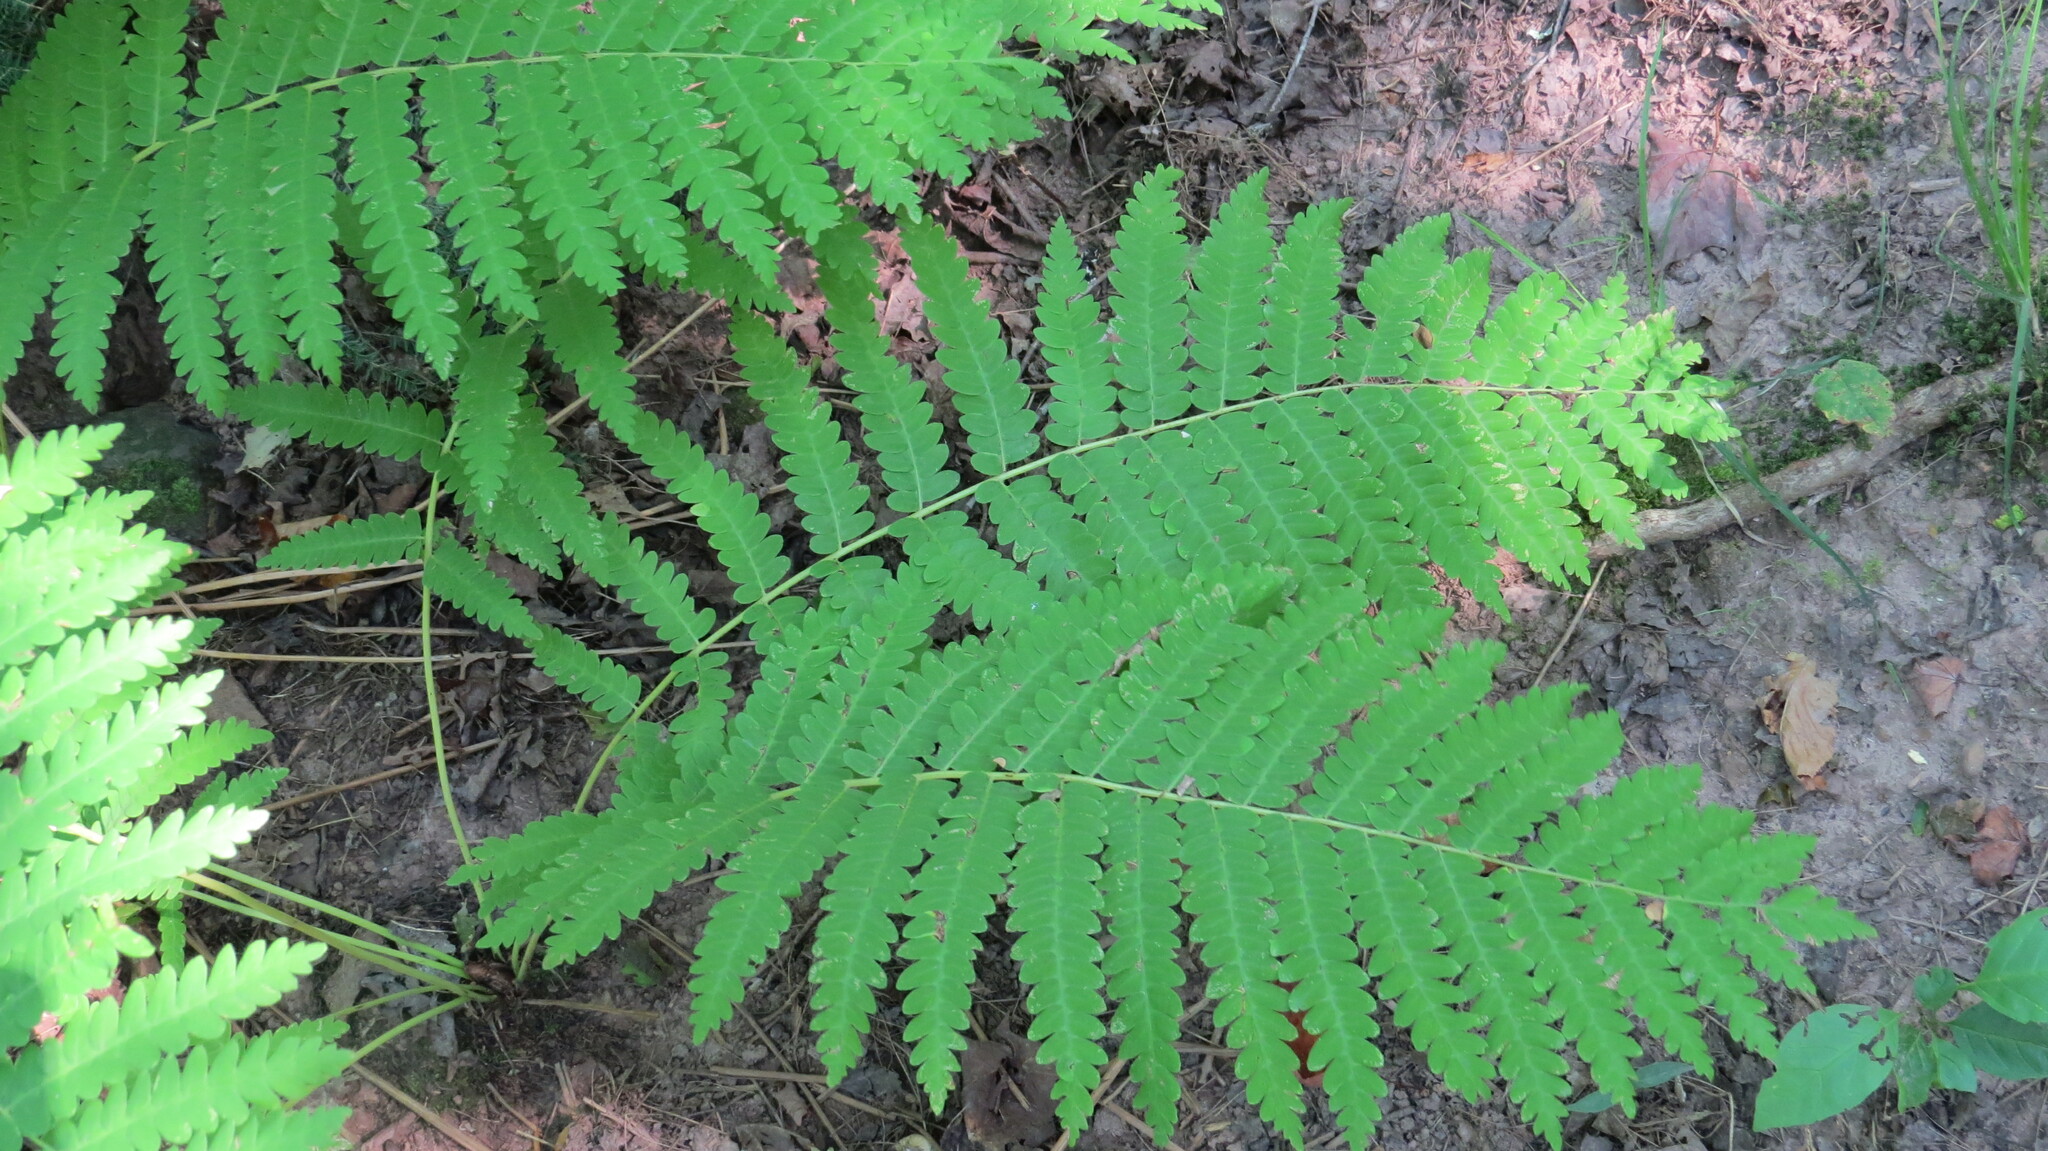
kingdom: Plantae
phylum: Tracheophyta
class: Polypodiopsida
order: Osmundales
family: Osmundaceae
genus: Claytosmunda
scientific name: Claytosmunda claytoniana
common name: Clayton's fern
